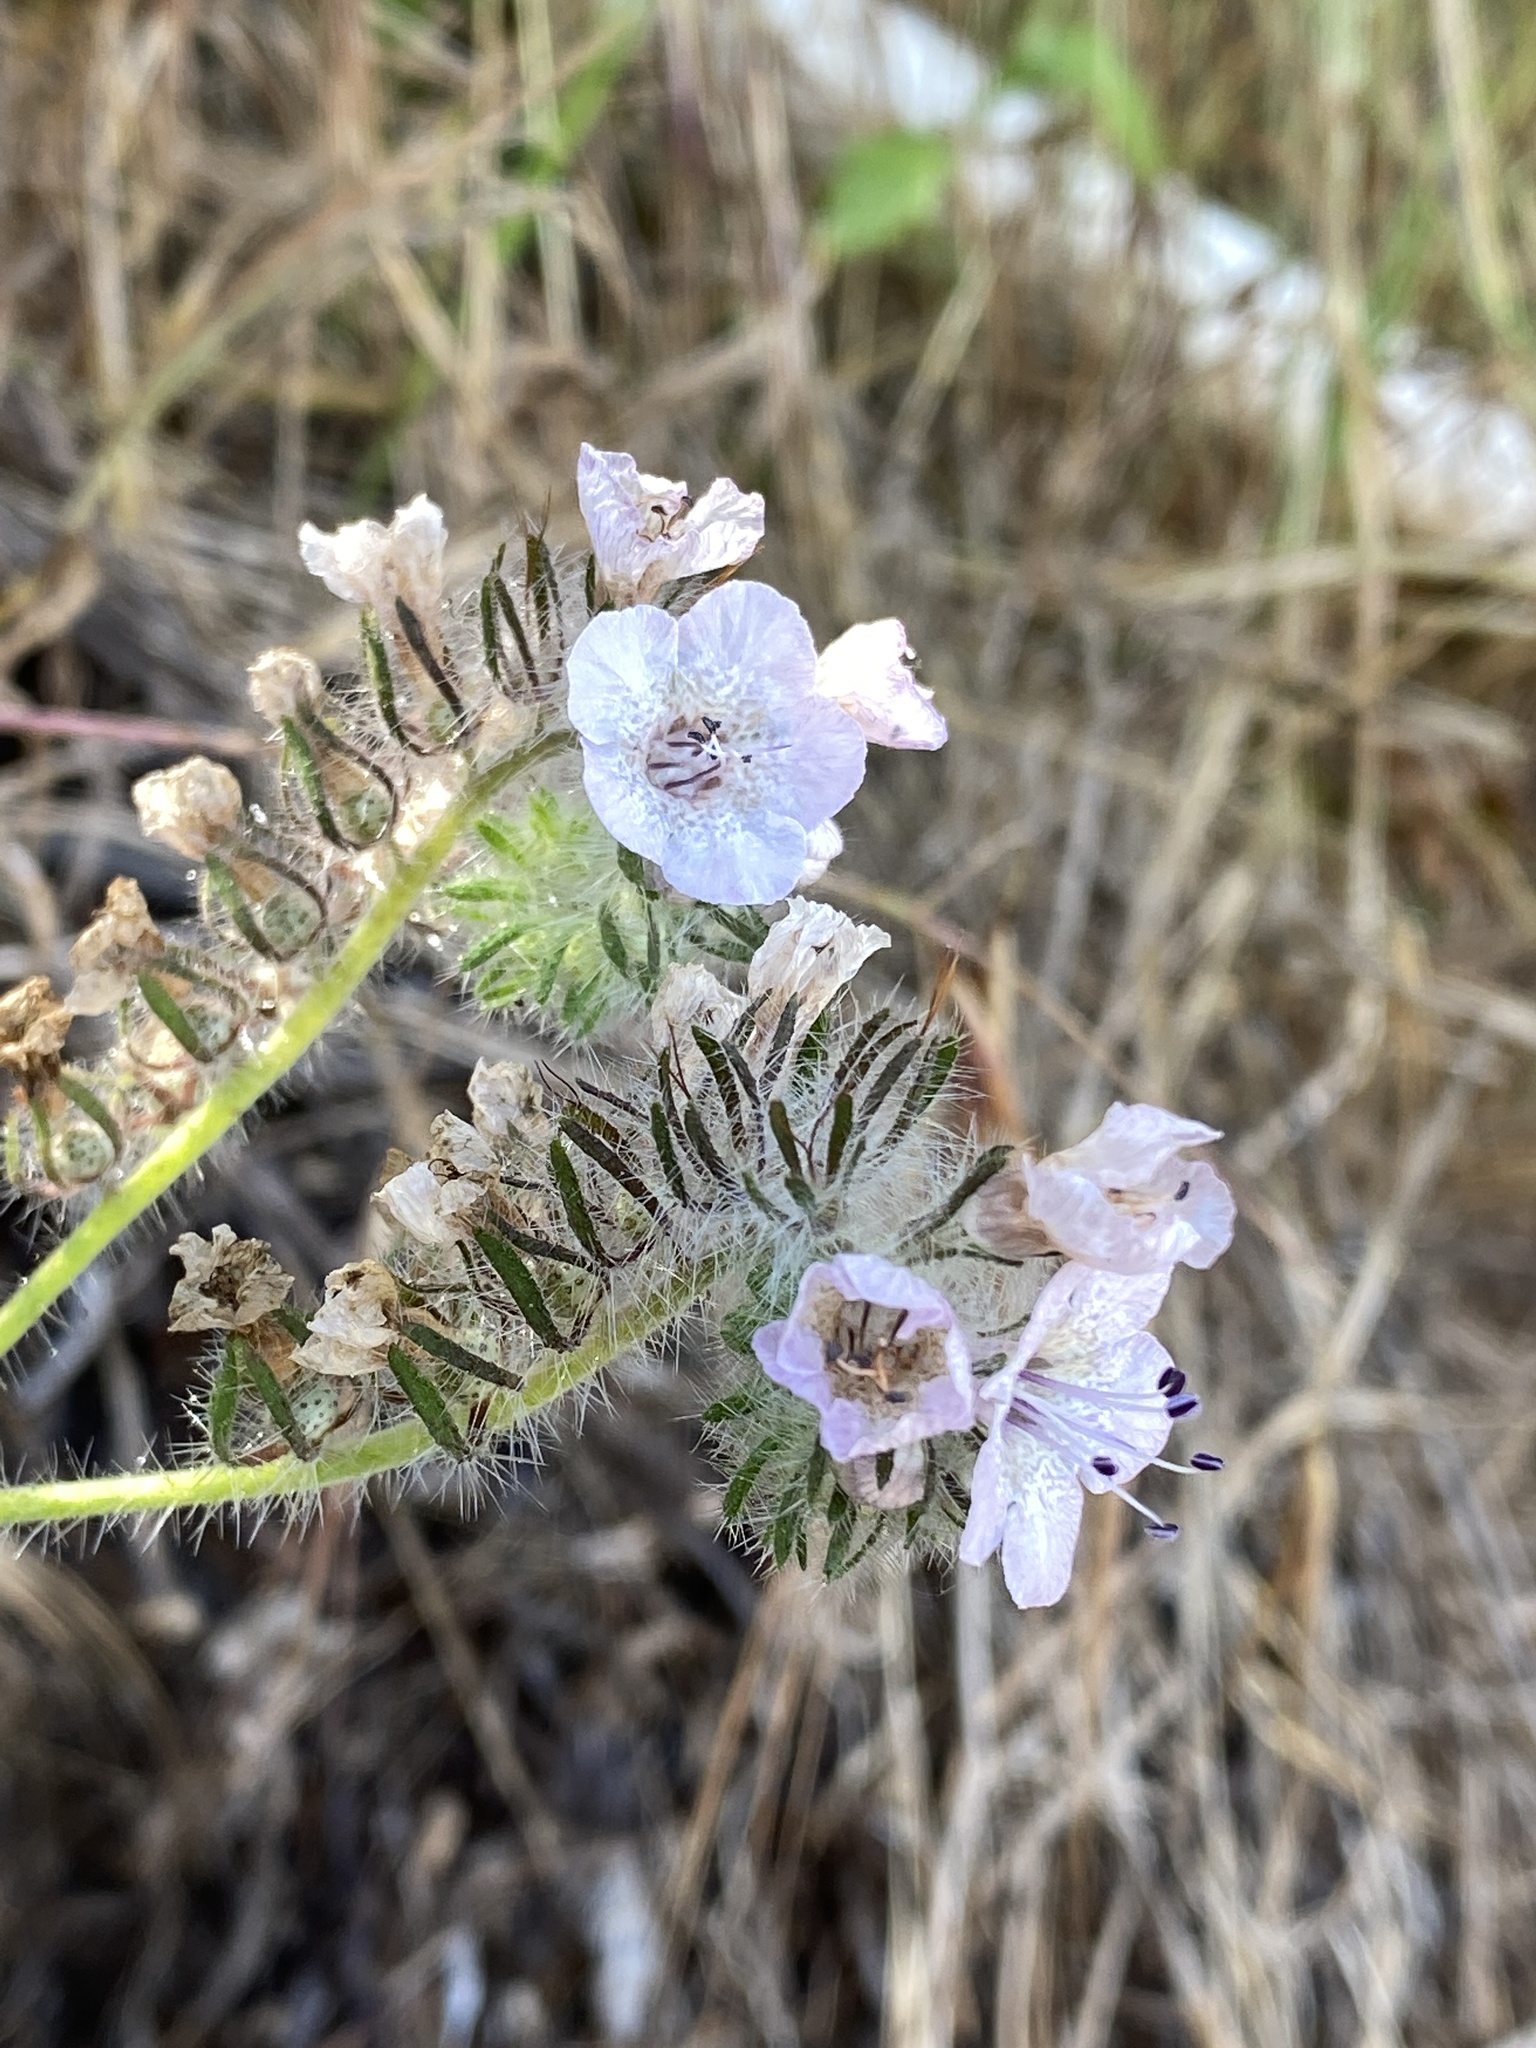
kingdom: Plantae
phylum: Tracheophyta
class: Magnoliopsida
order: Boraginales
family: Hydrophyllaceae
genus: Phacelia
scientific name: Phacelia cicutaria
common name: Caterpillar phacelia
